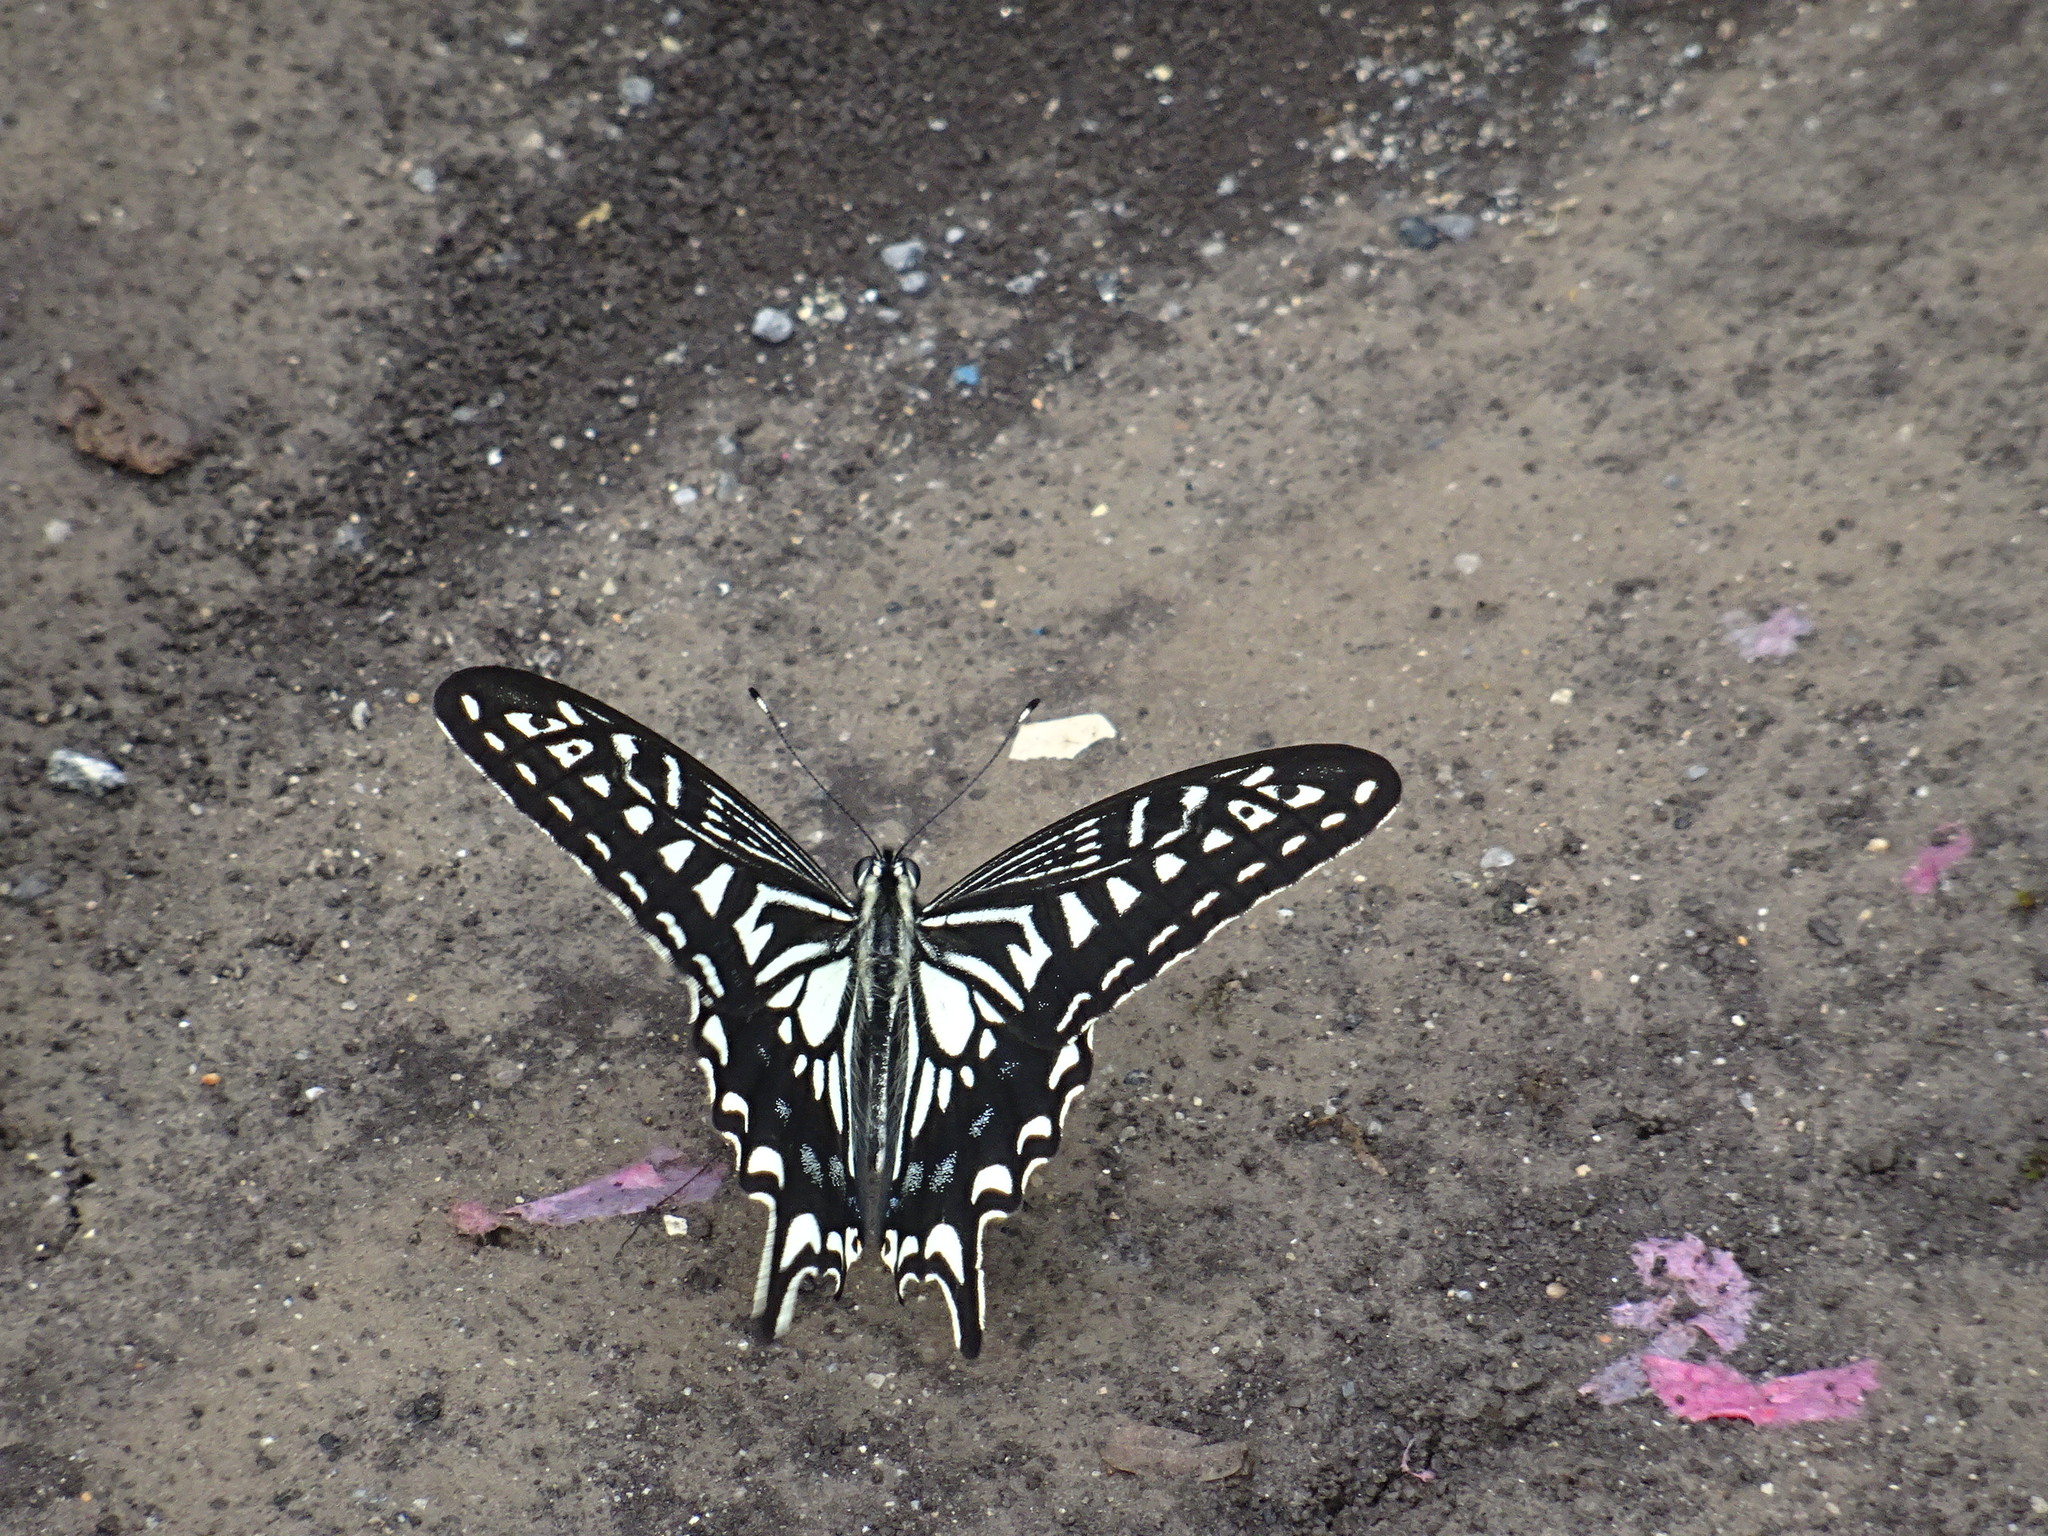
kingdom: Animalia
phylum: Arthropoda
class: Insecta
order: Lepidoptera
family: Papilionidae
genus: Papilio
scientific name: Papilio xuthus
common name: Asian swallowtail
